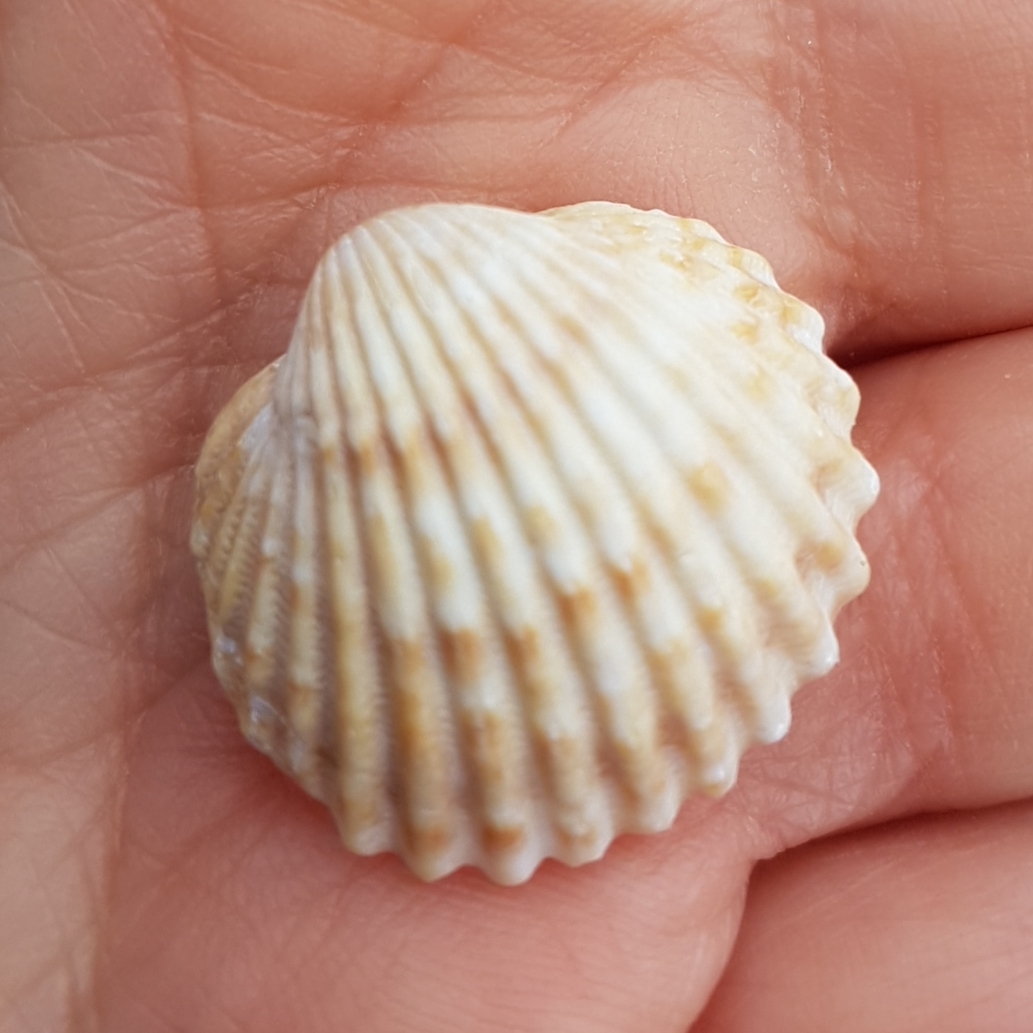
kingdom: Animalia
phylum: Mollusca
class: Bivalvia
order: Cardiida
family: Cardiidae
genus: Acanthocardia
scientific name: Acanthocardia tuberculata
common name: Rough cockle
